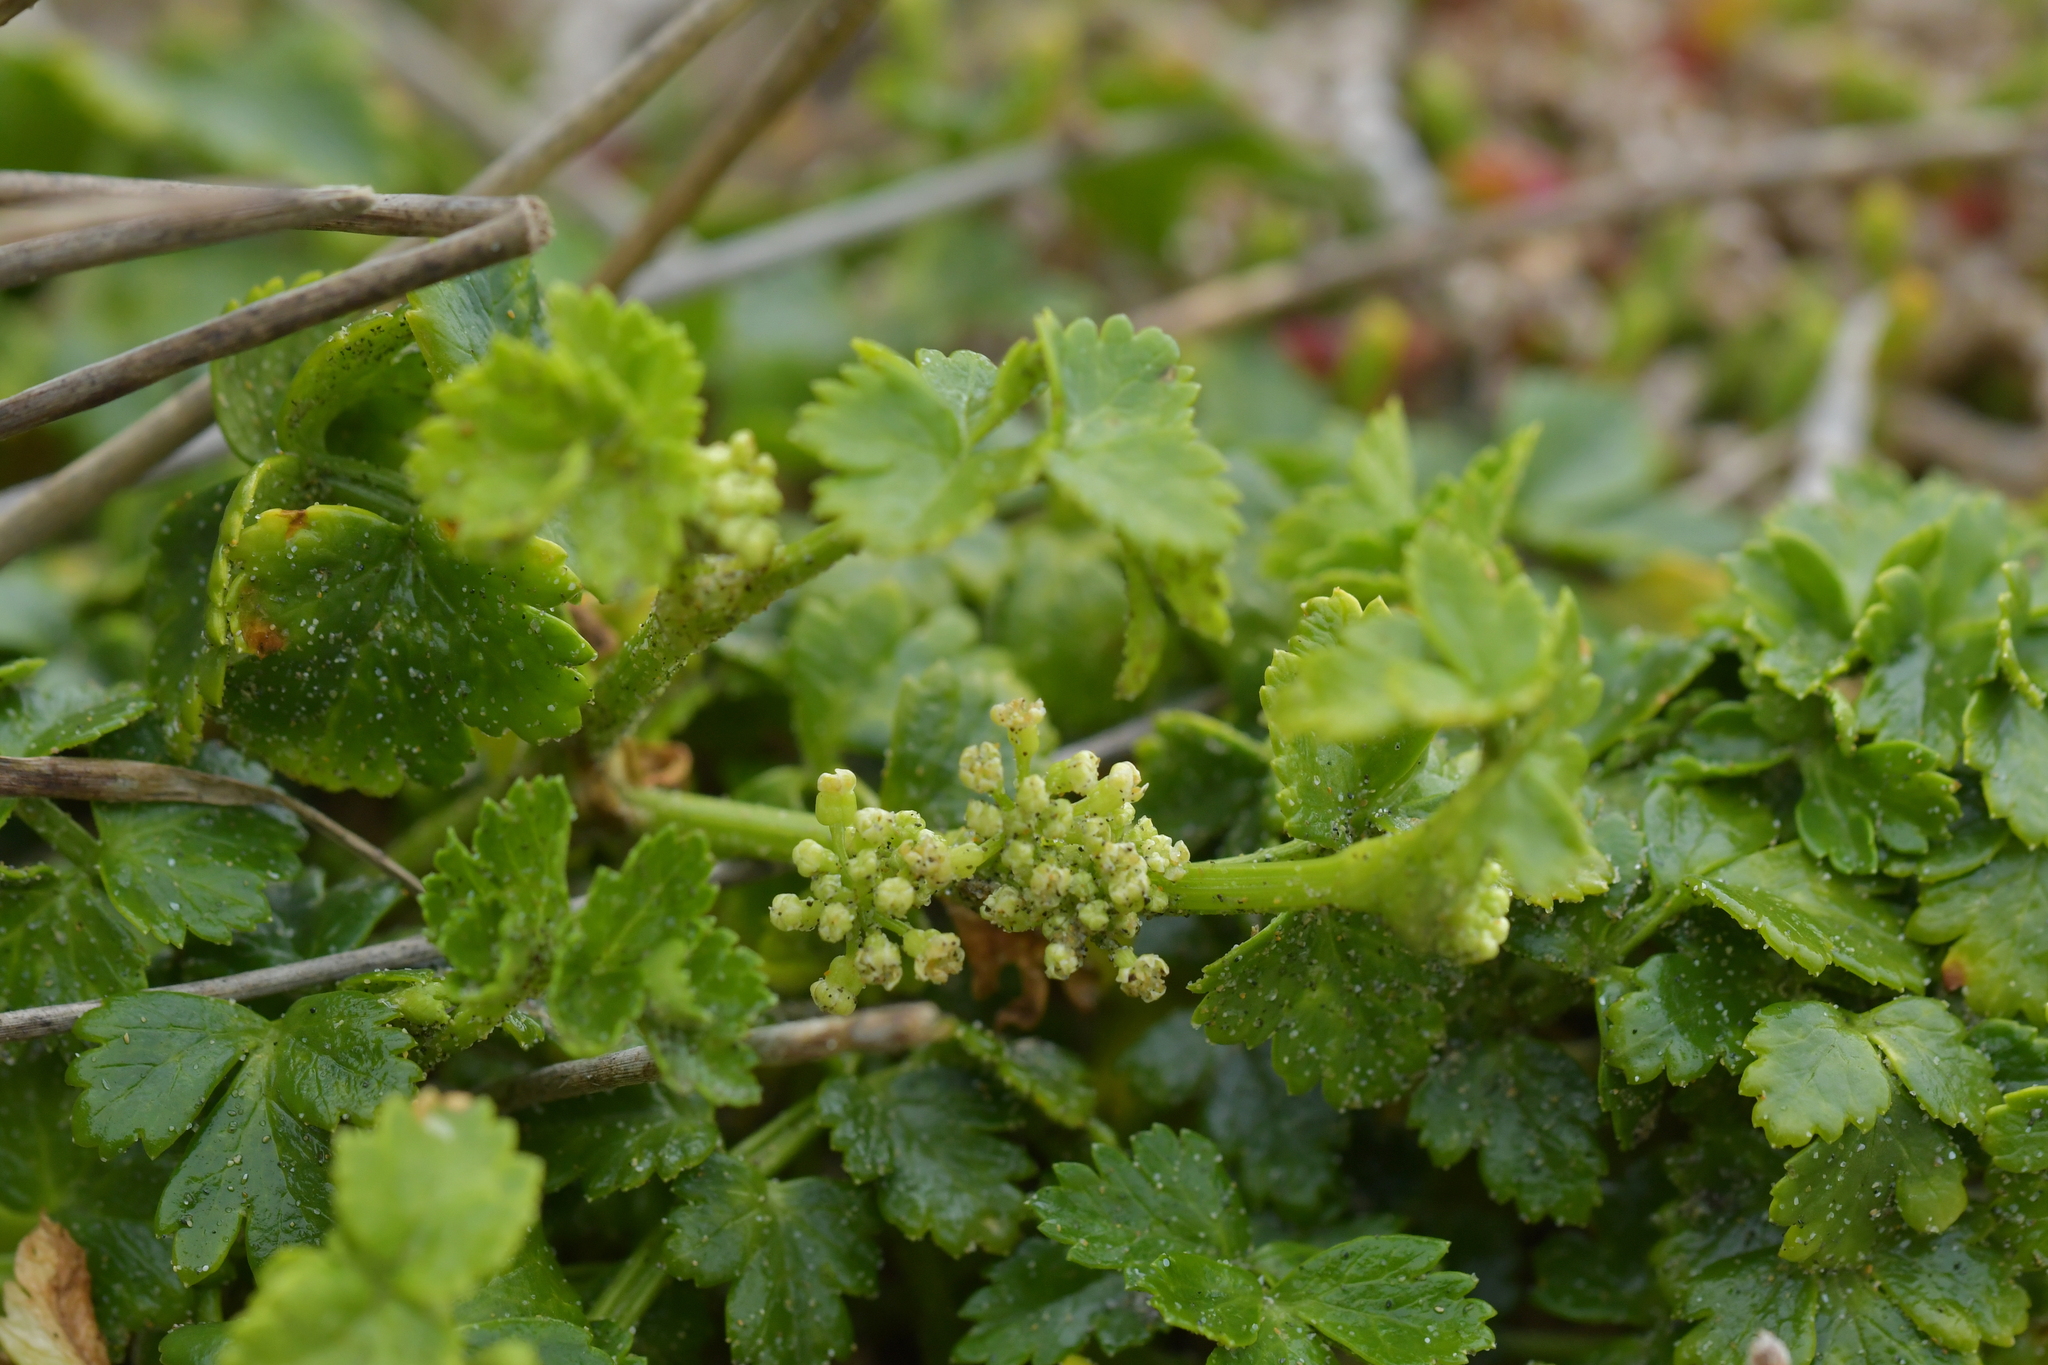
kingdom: Plantae
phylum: Tracheophyta
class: Magnoliopsida
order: Apiales
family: Apiaceae
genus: Apium
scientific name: Apium prostratum
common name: Prostrate marshwort
